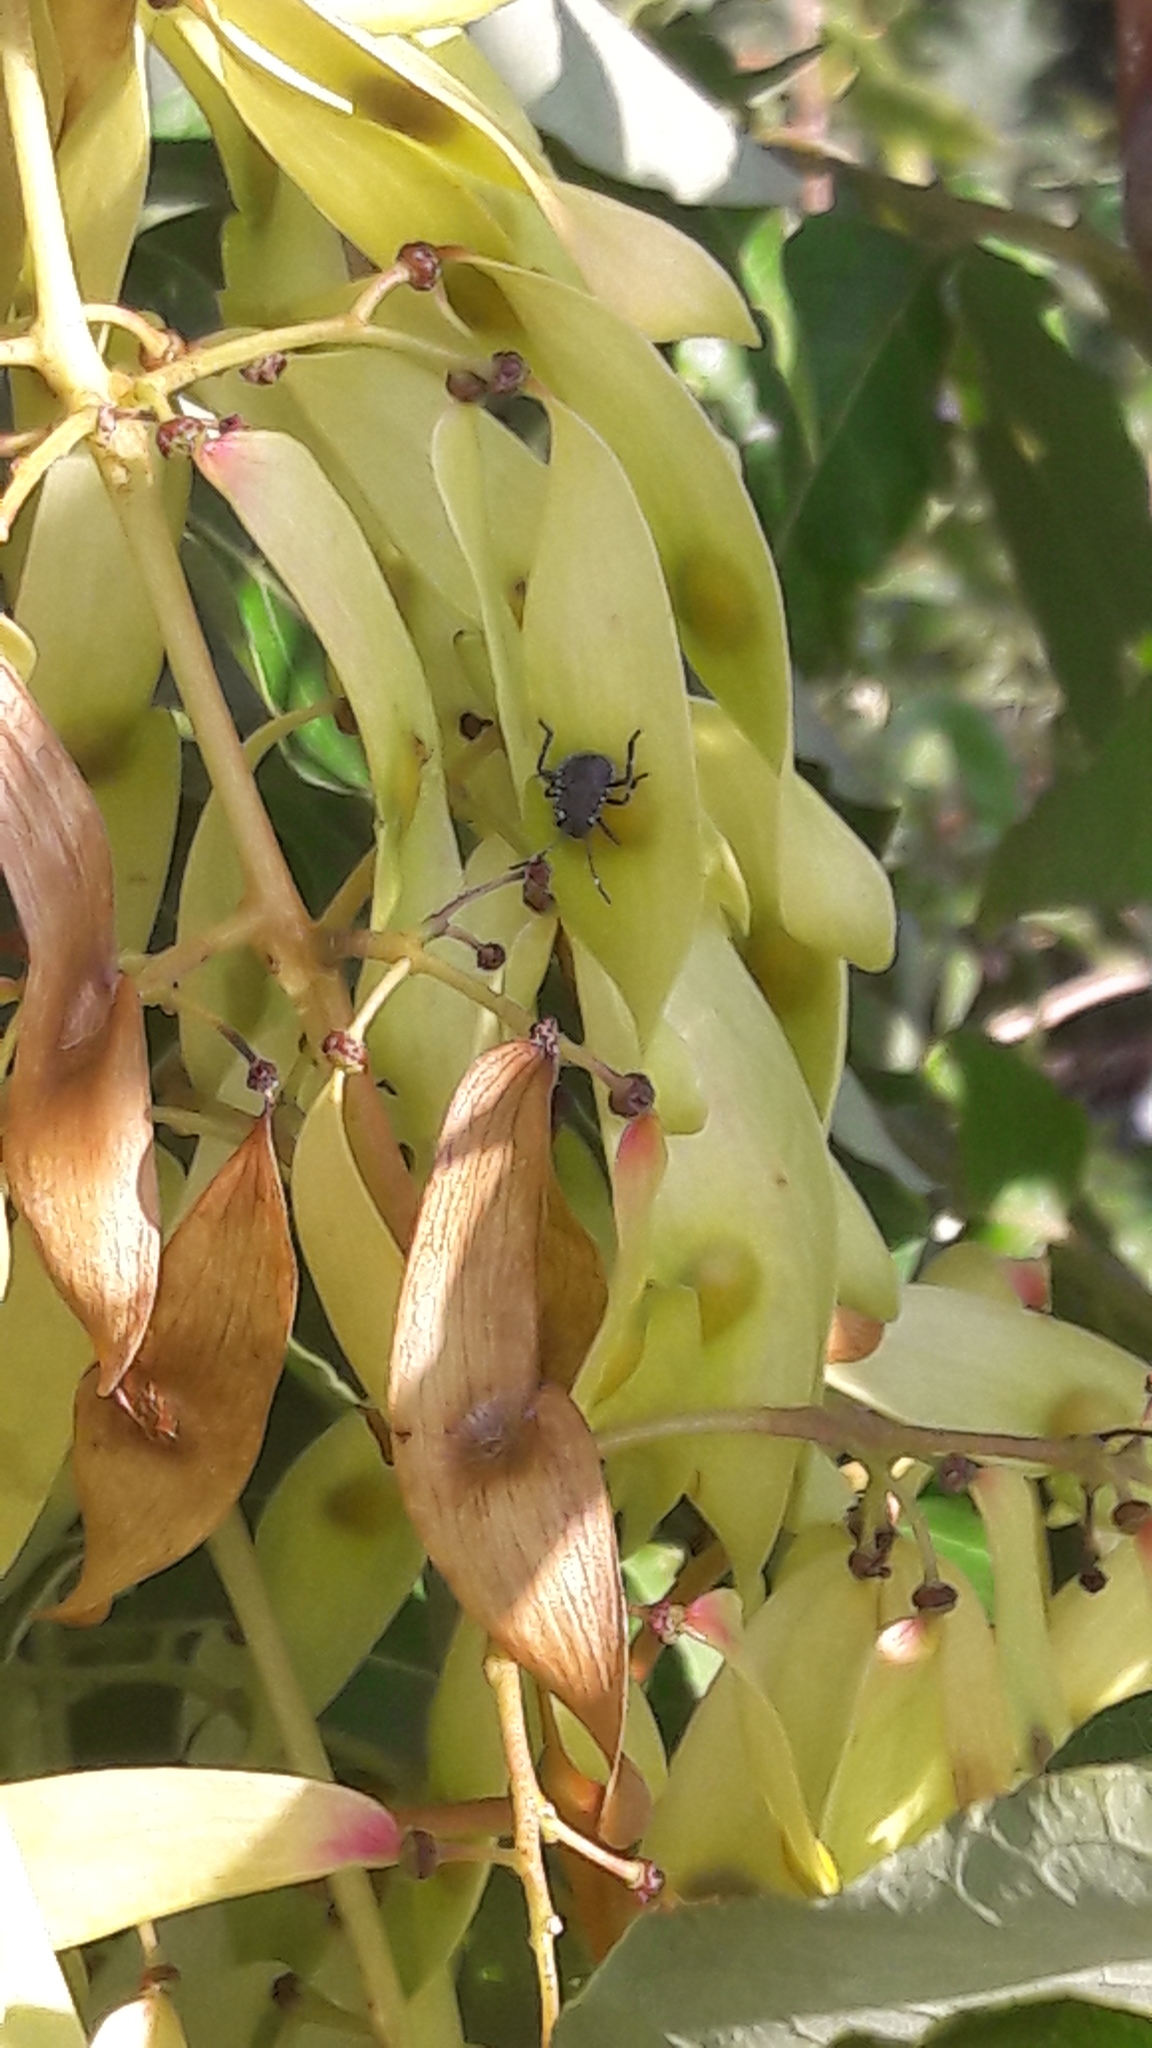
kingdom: Animalia
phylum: Arthropoda
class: Insecta
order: Hemiptera
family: Pentatomidae
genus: Halyomorpha
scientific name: Halyomorpha halys
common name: Brown marmorated stink bug
